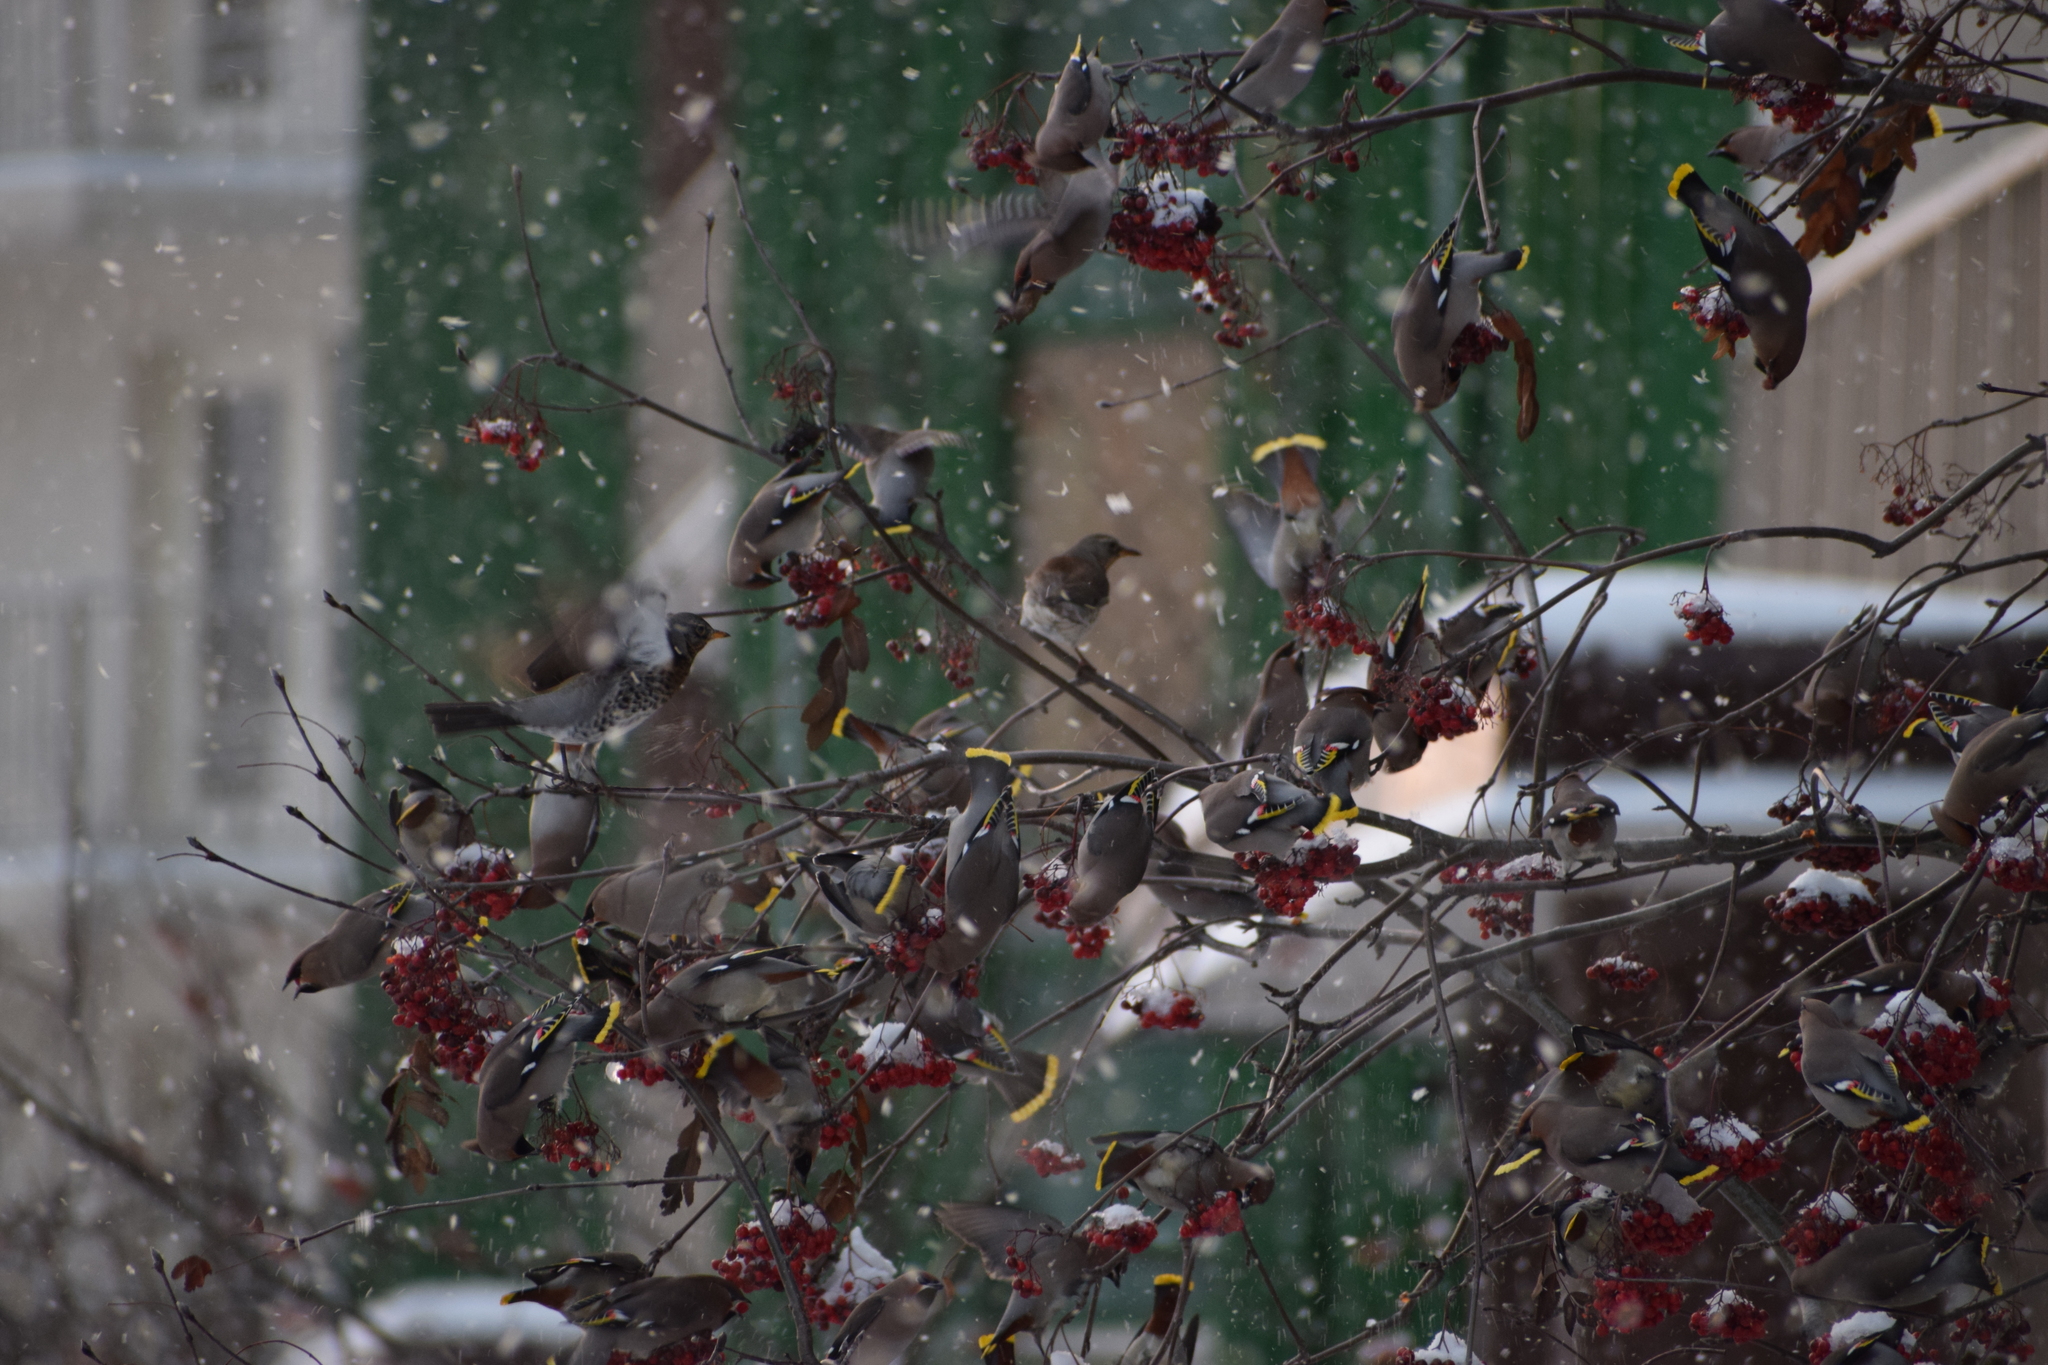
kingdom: Animalia
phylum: Chordata
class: Aves
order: Passeriformes
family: Bombycillidae
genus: Bombycilla
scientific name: Bombycilla garrulus
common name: Bohemian waxwing
